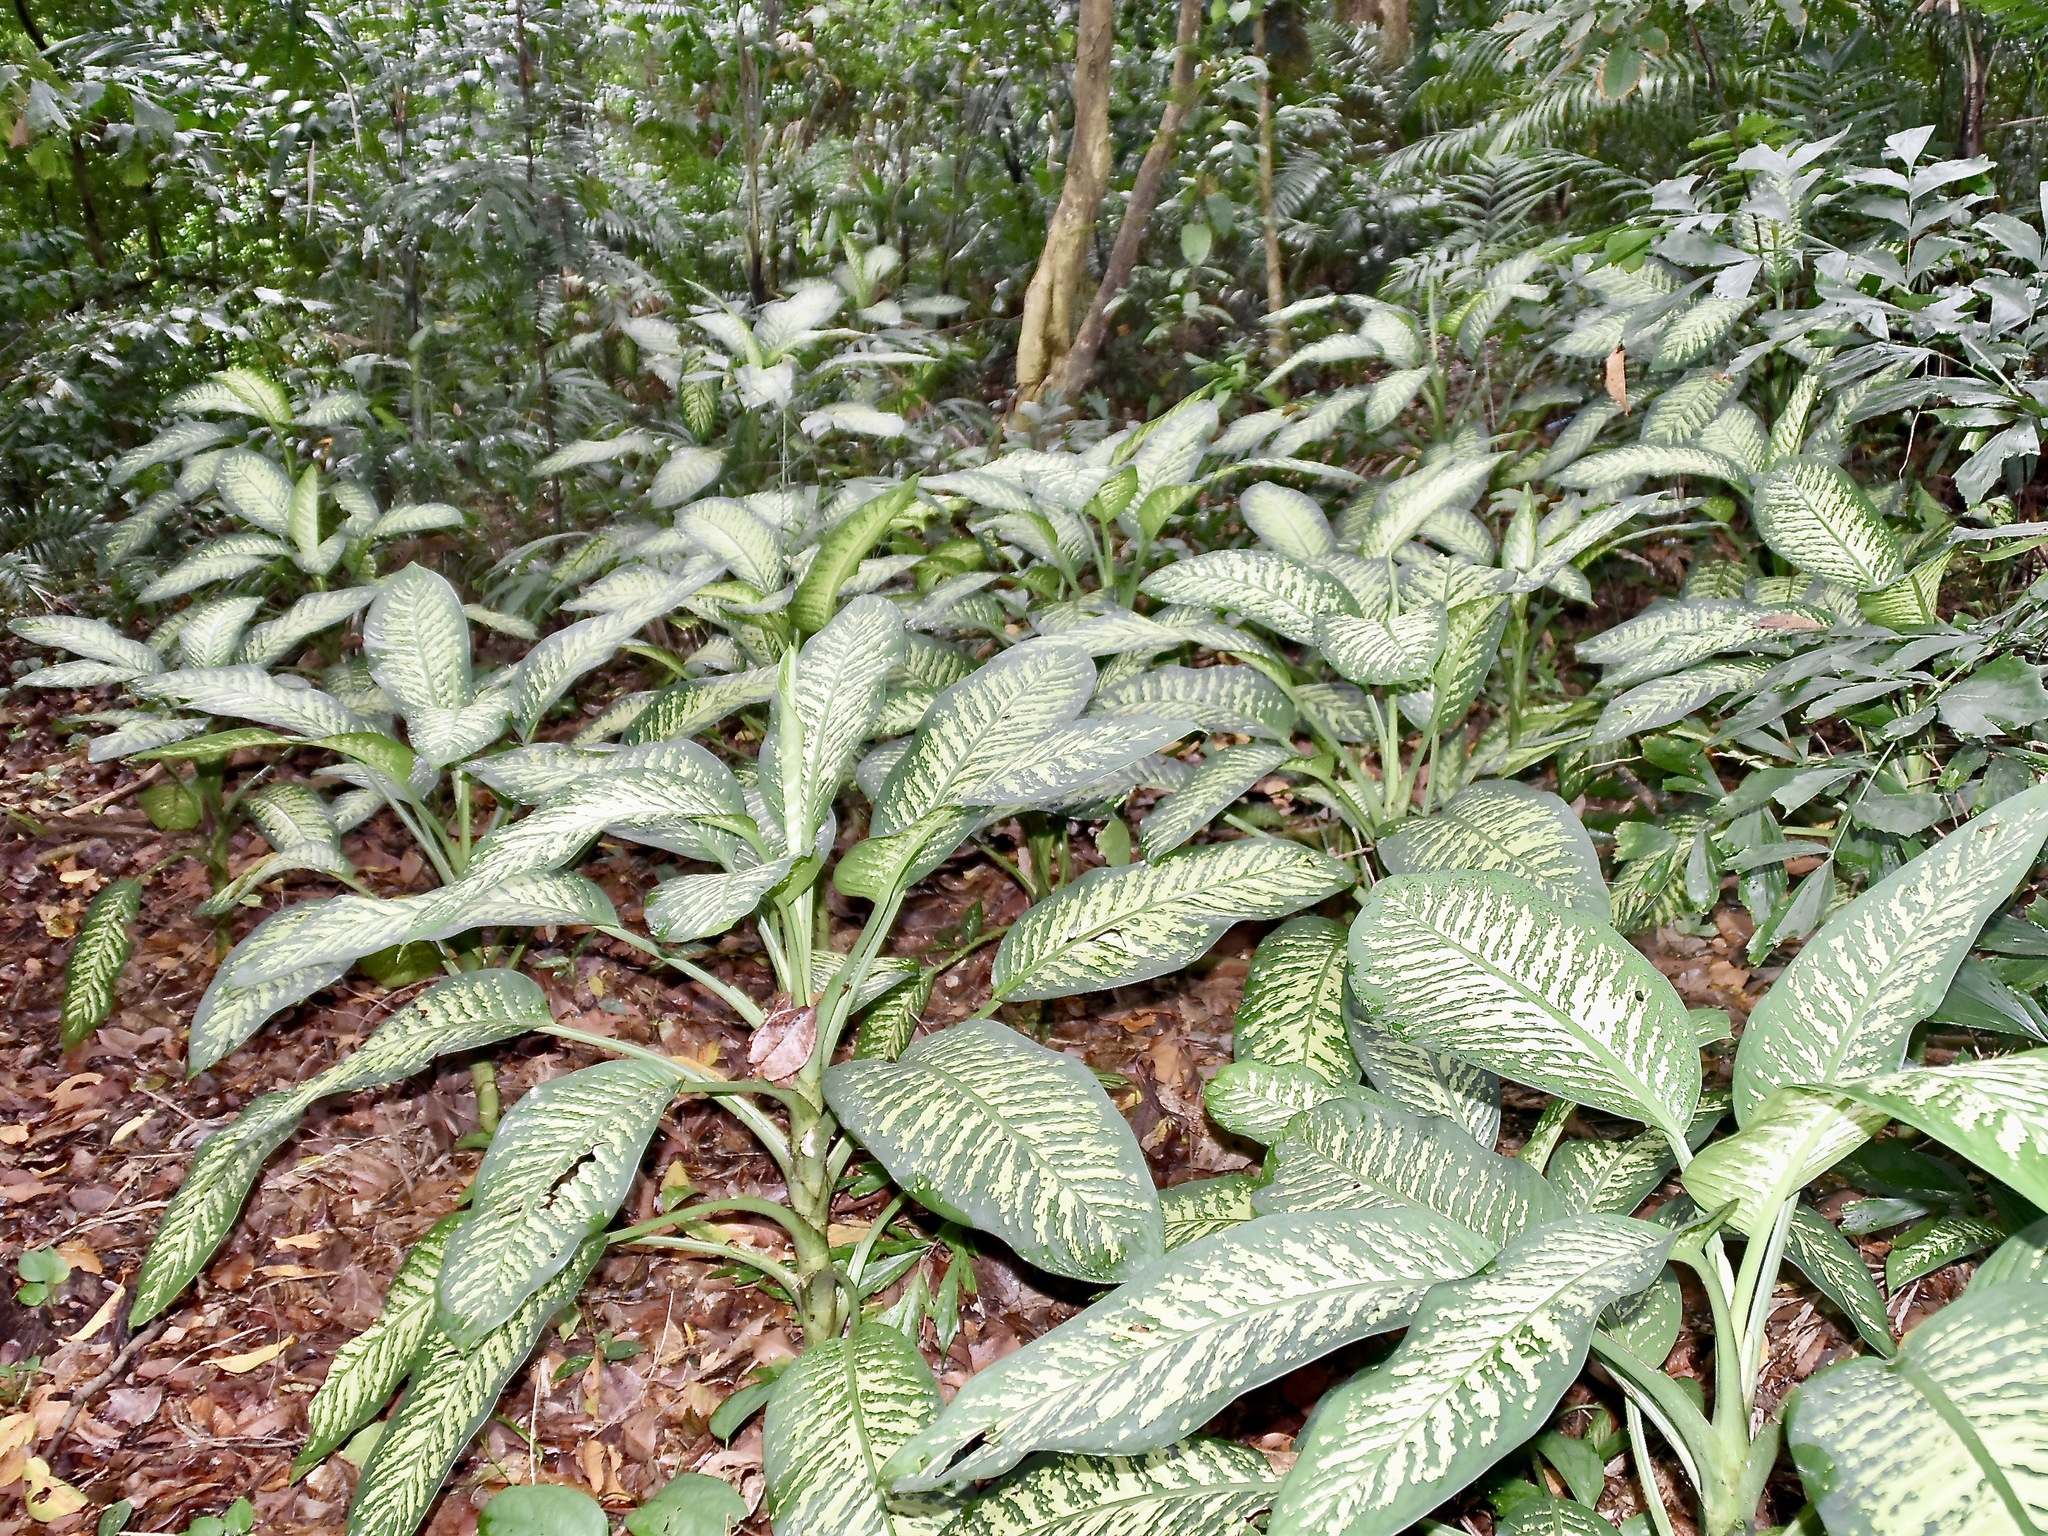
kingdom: Plantae
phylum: Tracheophyta
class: Liliopsida
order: Alismatales
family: Araceae
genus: Dieffenbachia
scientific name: Dieffenbachia seguine
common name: Dumbcane
